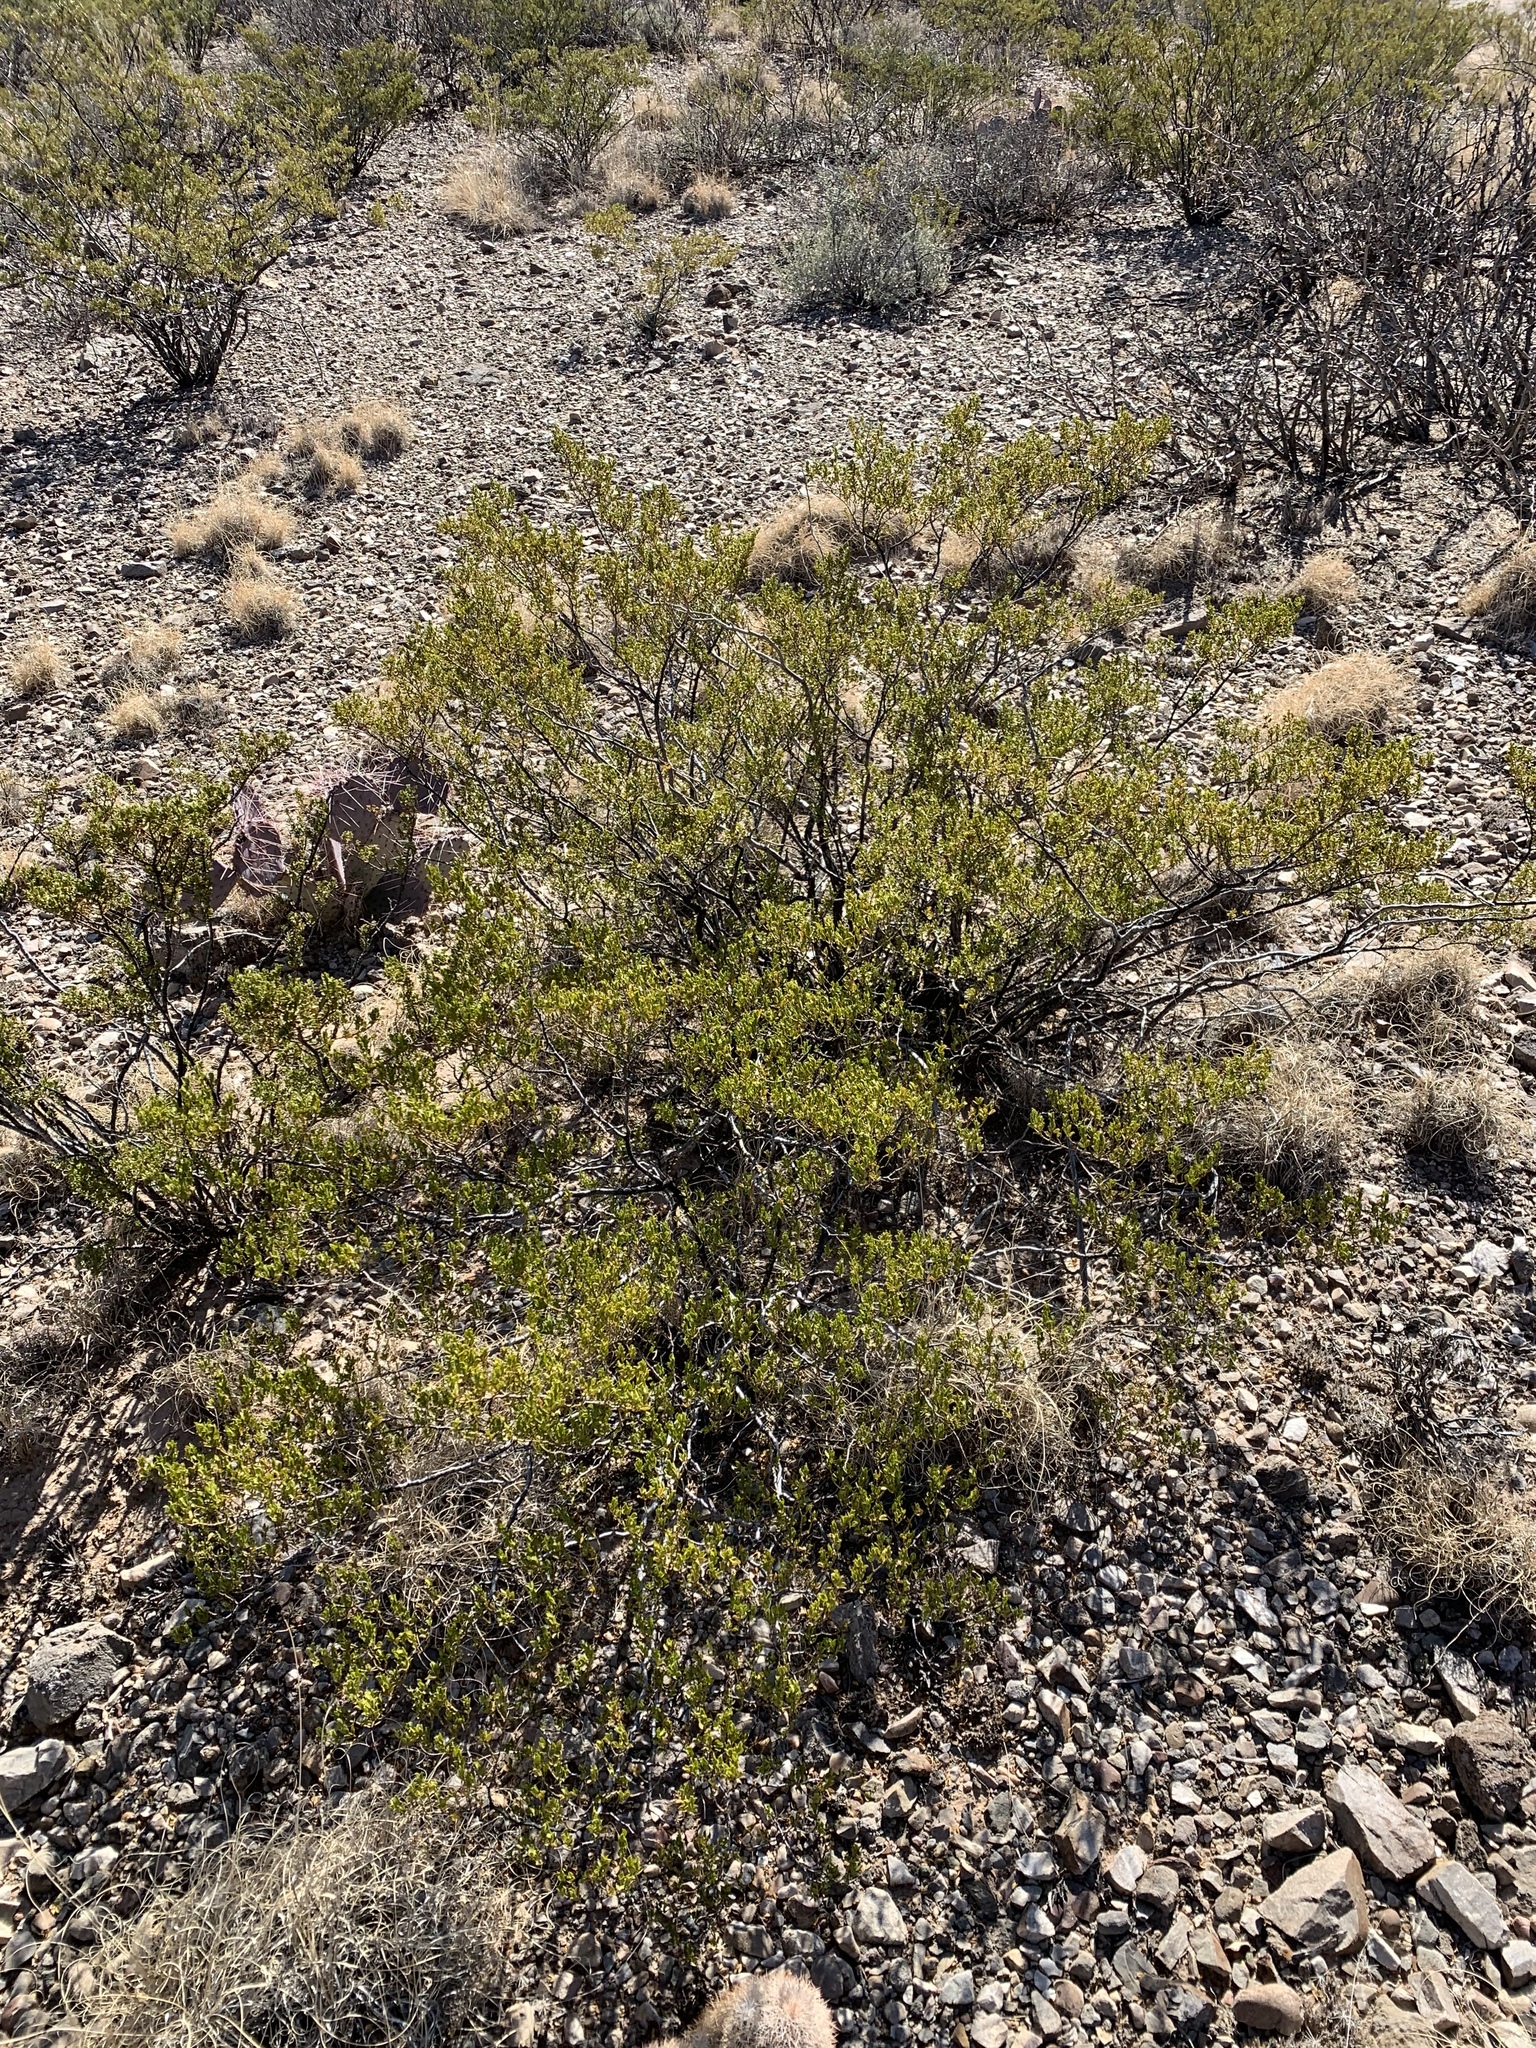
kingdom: Plantae
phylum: Tracheophyta
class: Magnoliopsida
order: Zygophyllales
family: Zygophyllaceae
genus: Larrea
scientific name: Larrea tridentata
